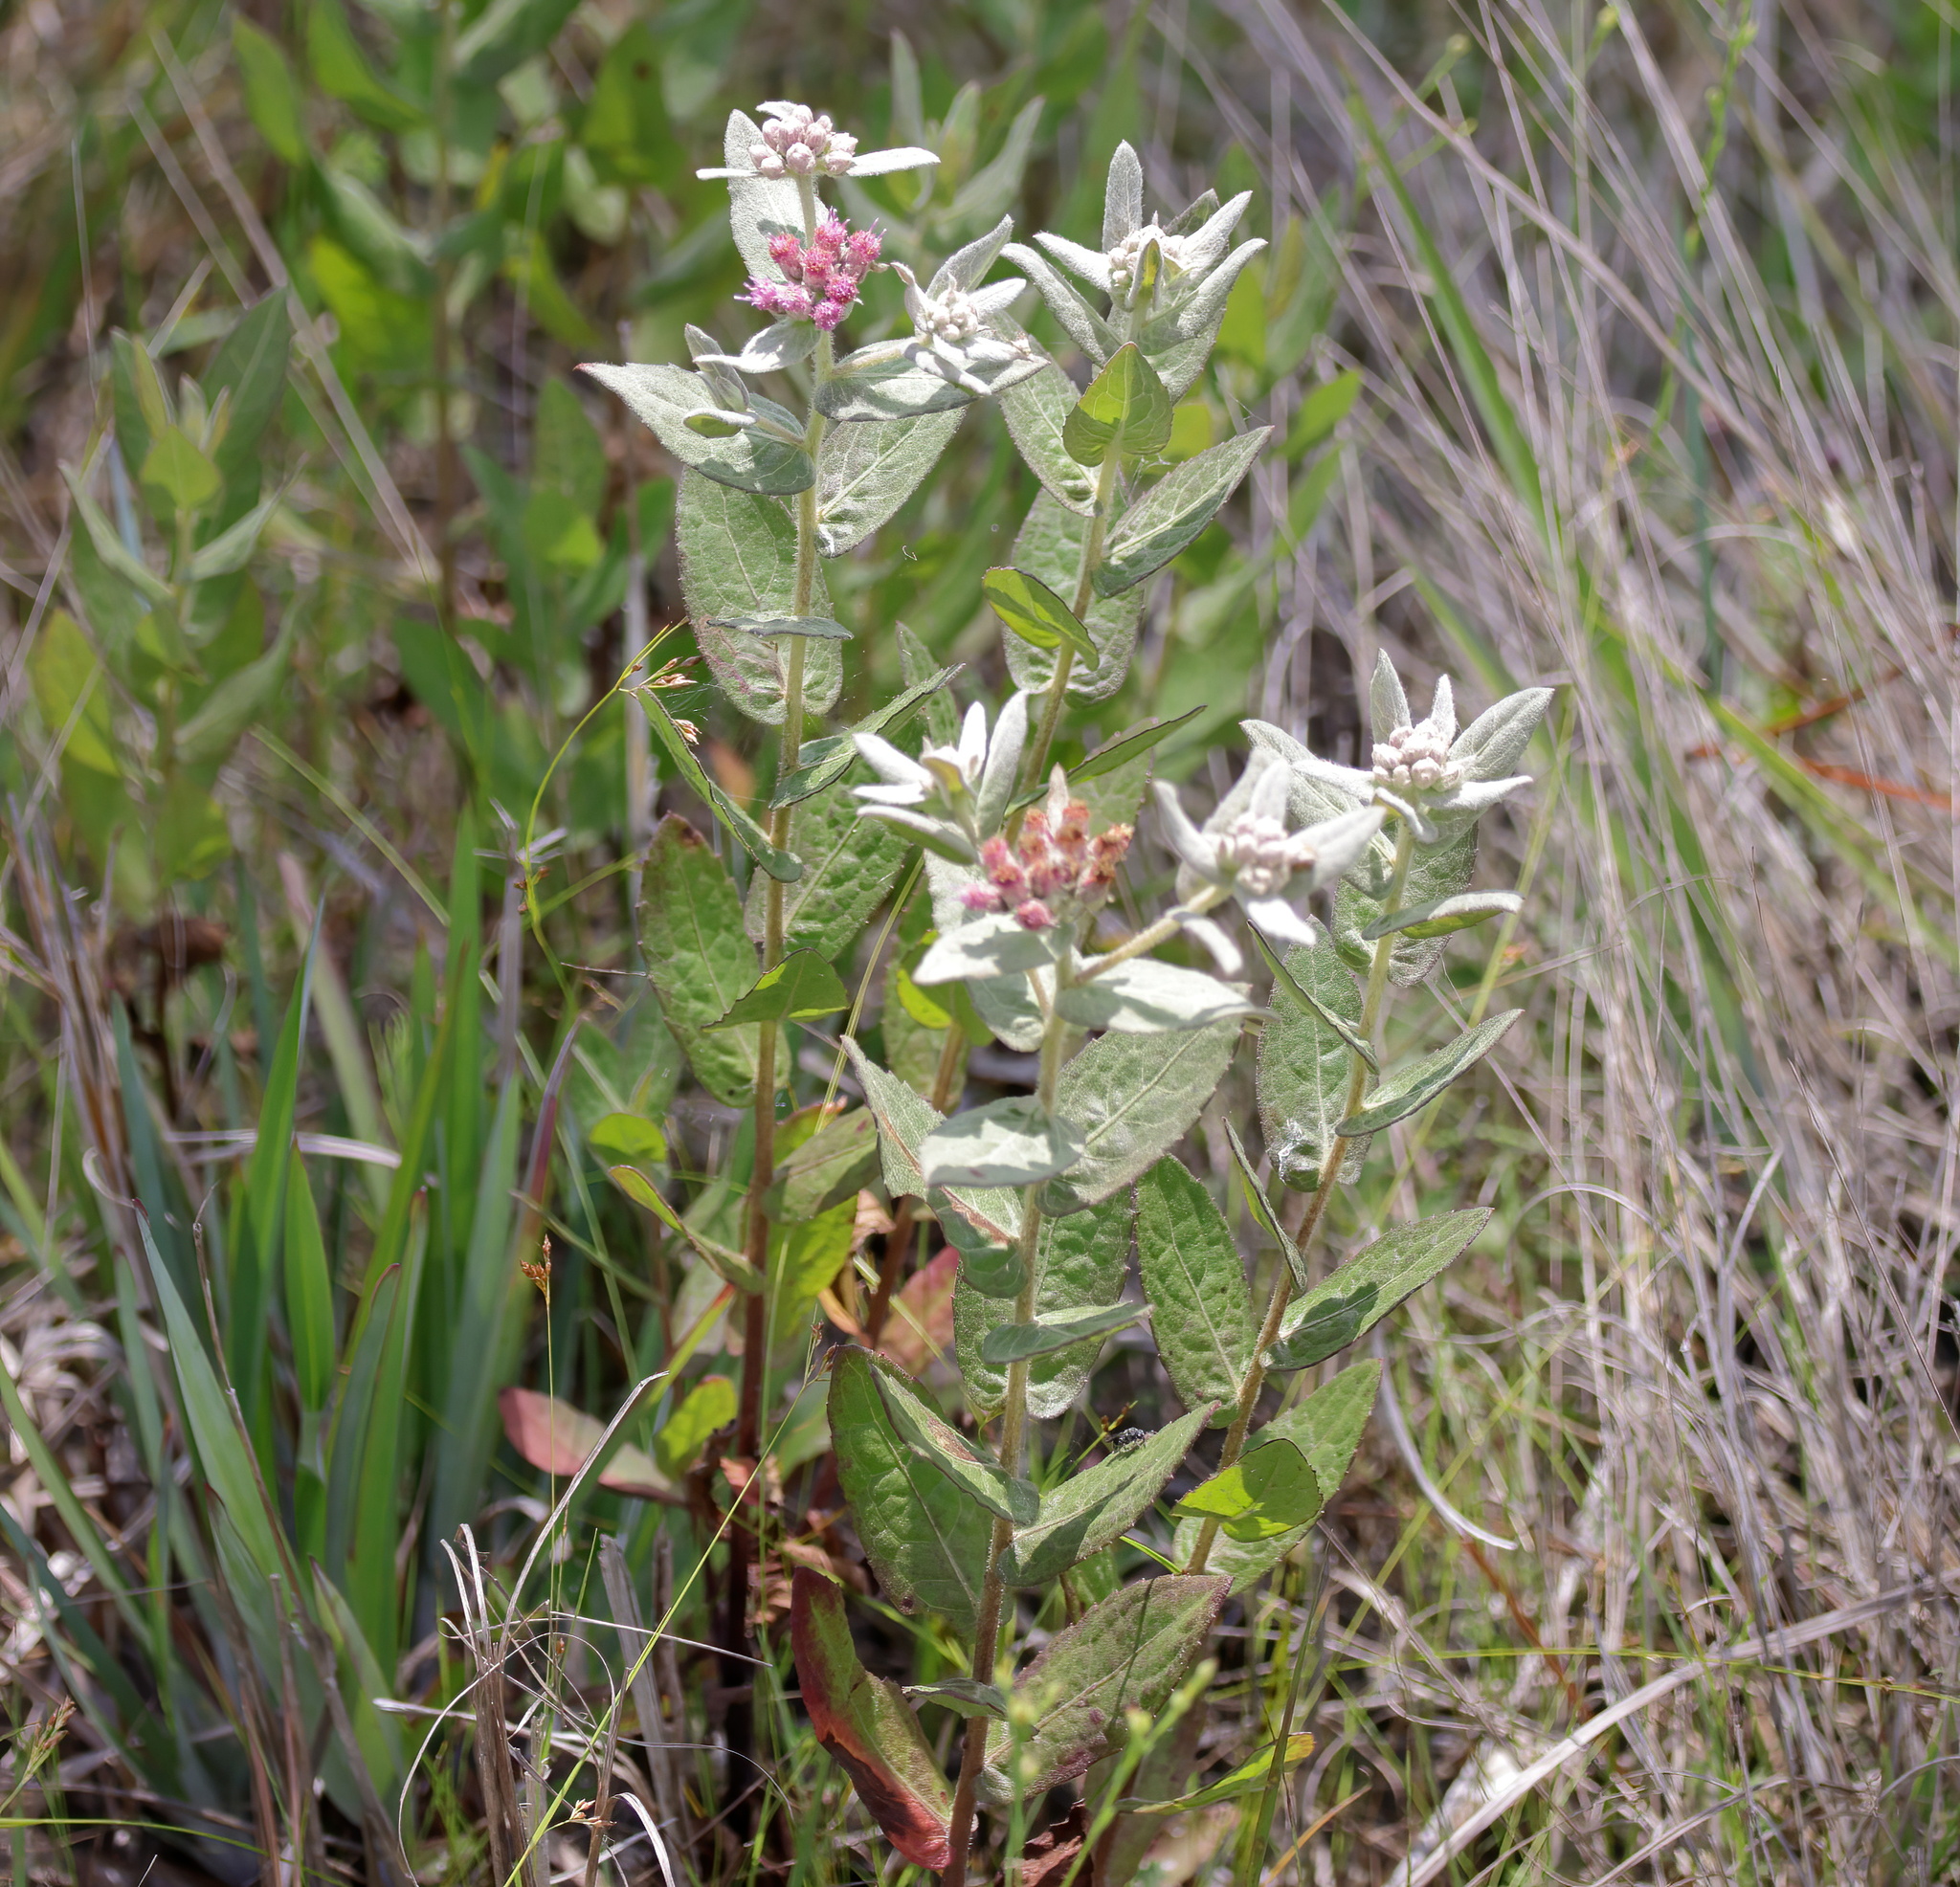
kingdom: Plantae
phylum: Tracheophyta
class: Magnoliopsida
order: Asterales
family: Asteraceae
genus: Pluchea
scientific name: Pluchea baccharis
